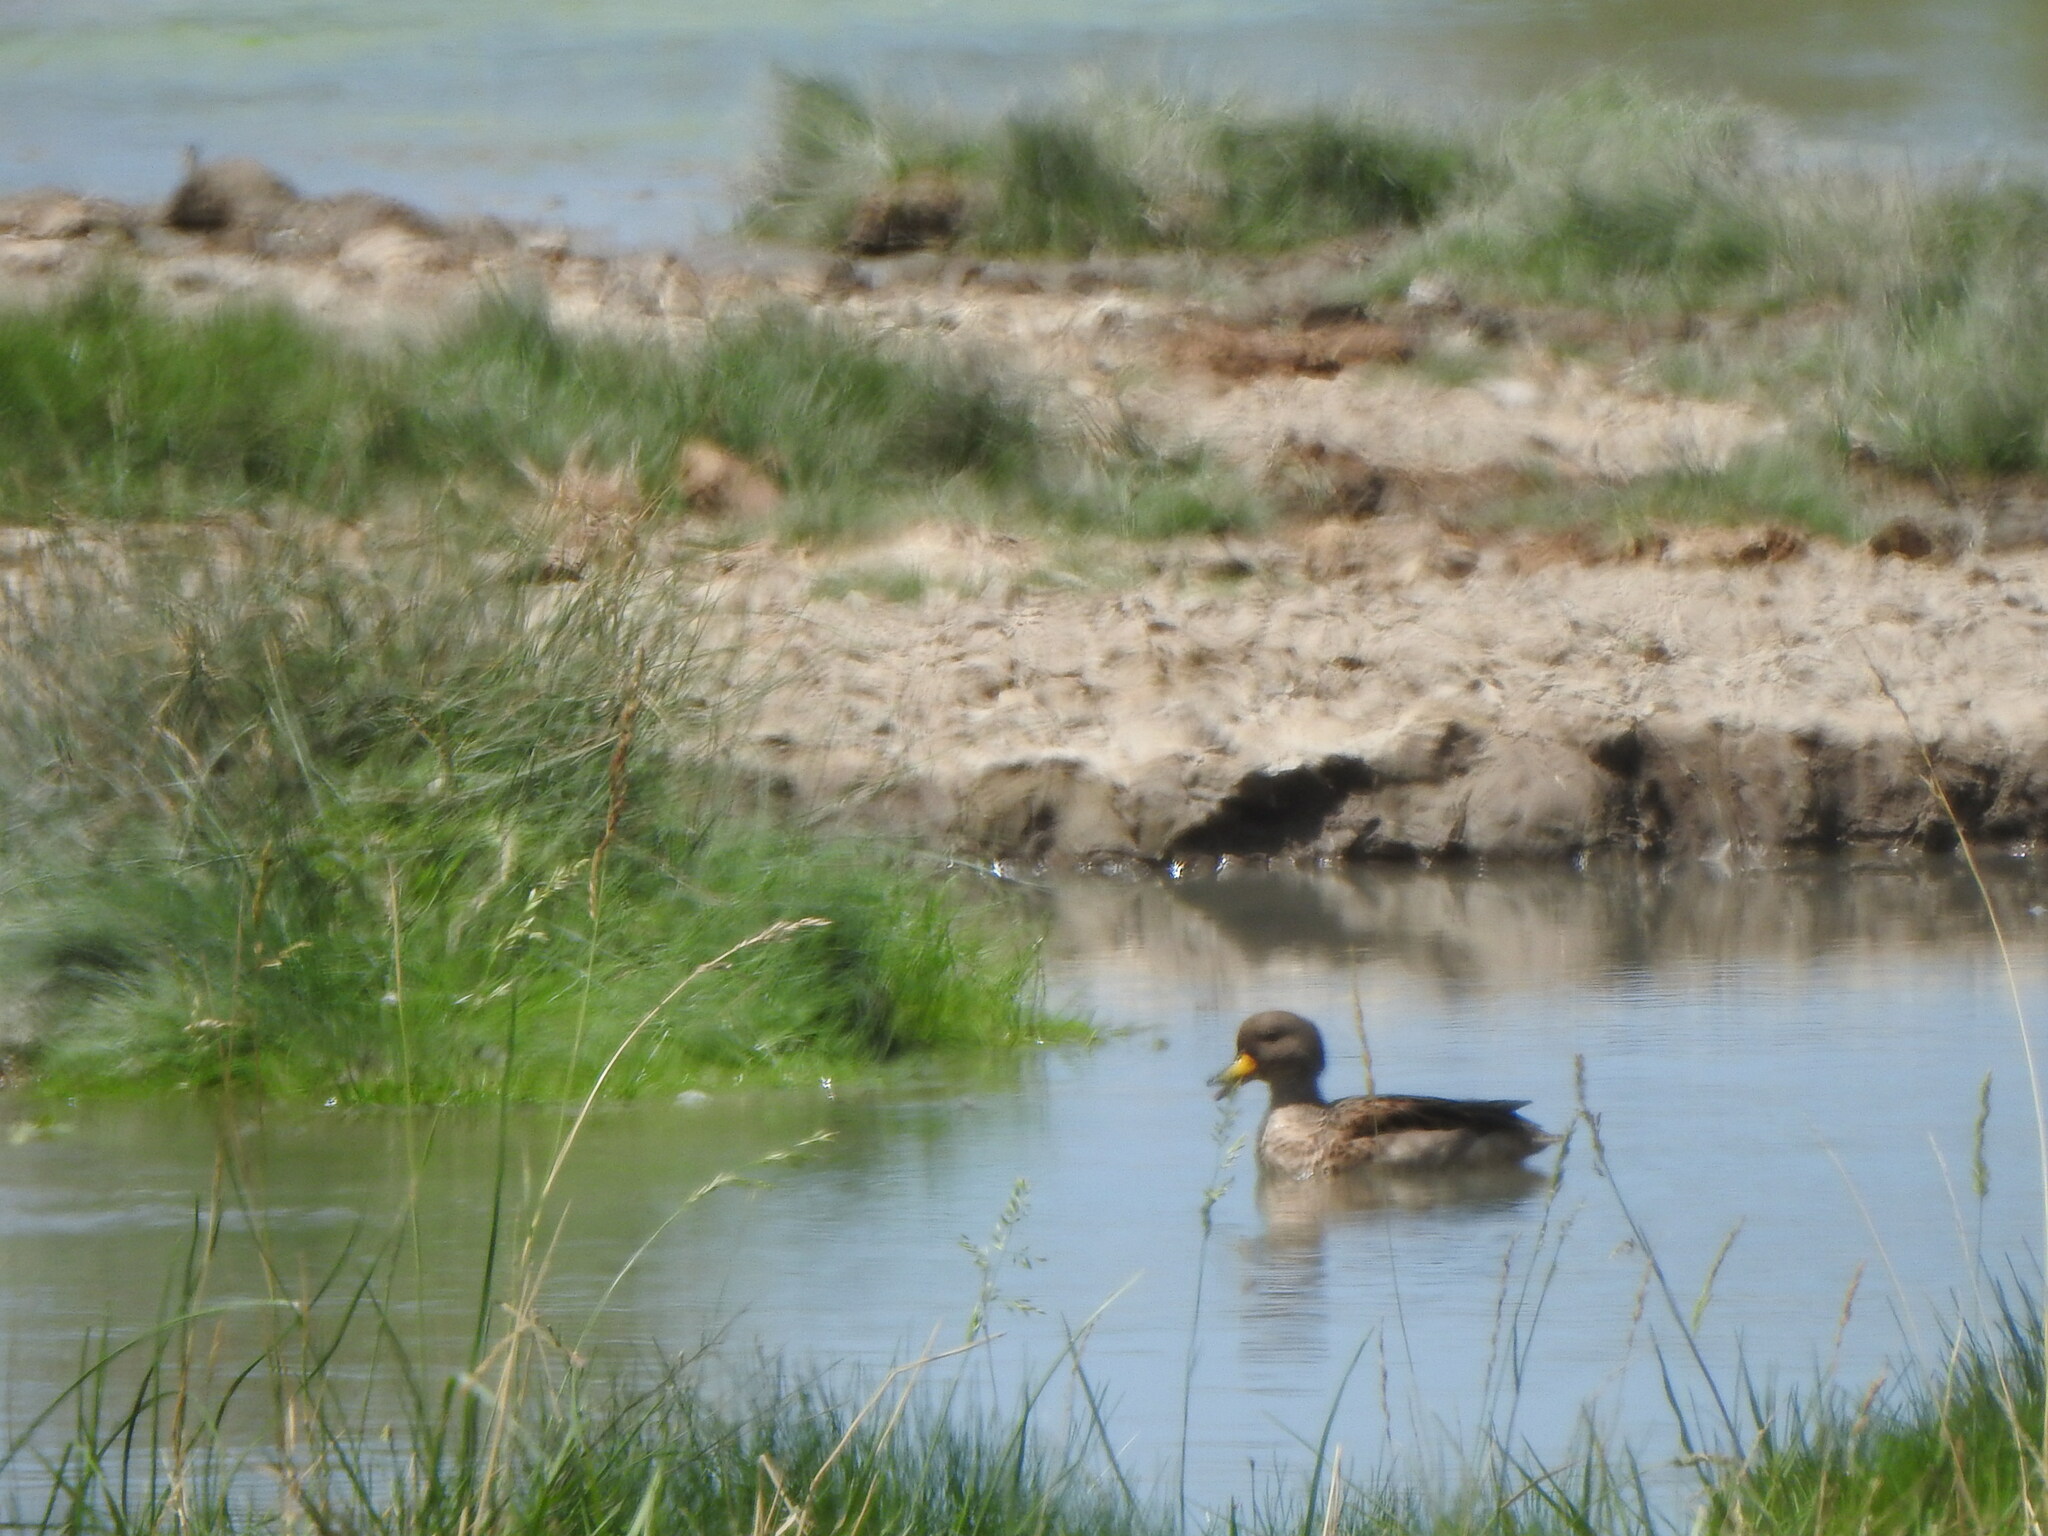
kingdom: Animalia
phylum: Chordata
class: Aves
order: Anseriformes
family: Anatidae
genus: Anas
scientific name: Anas flavirostris
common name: Yellow-billed teal
